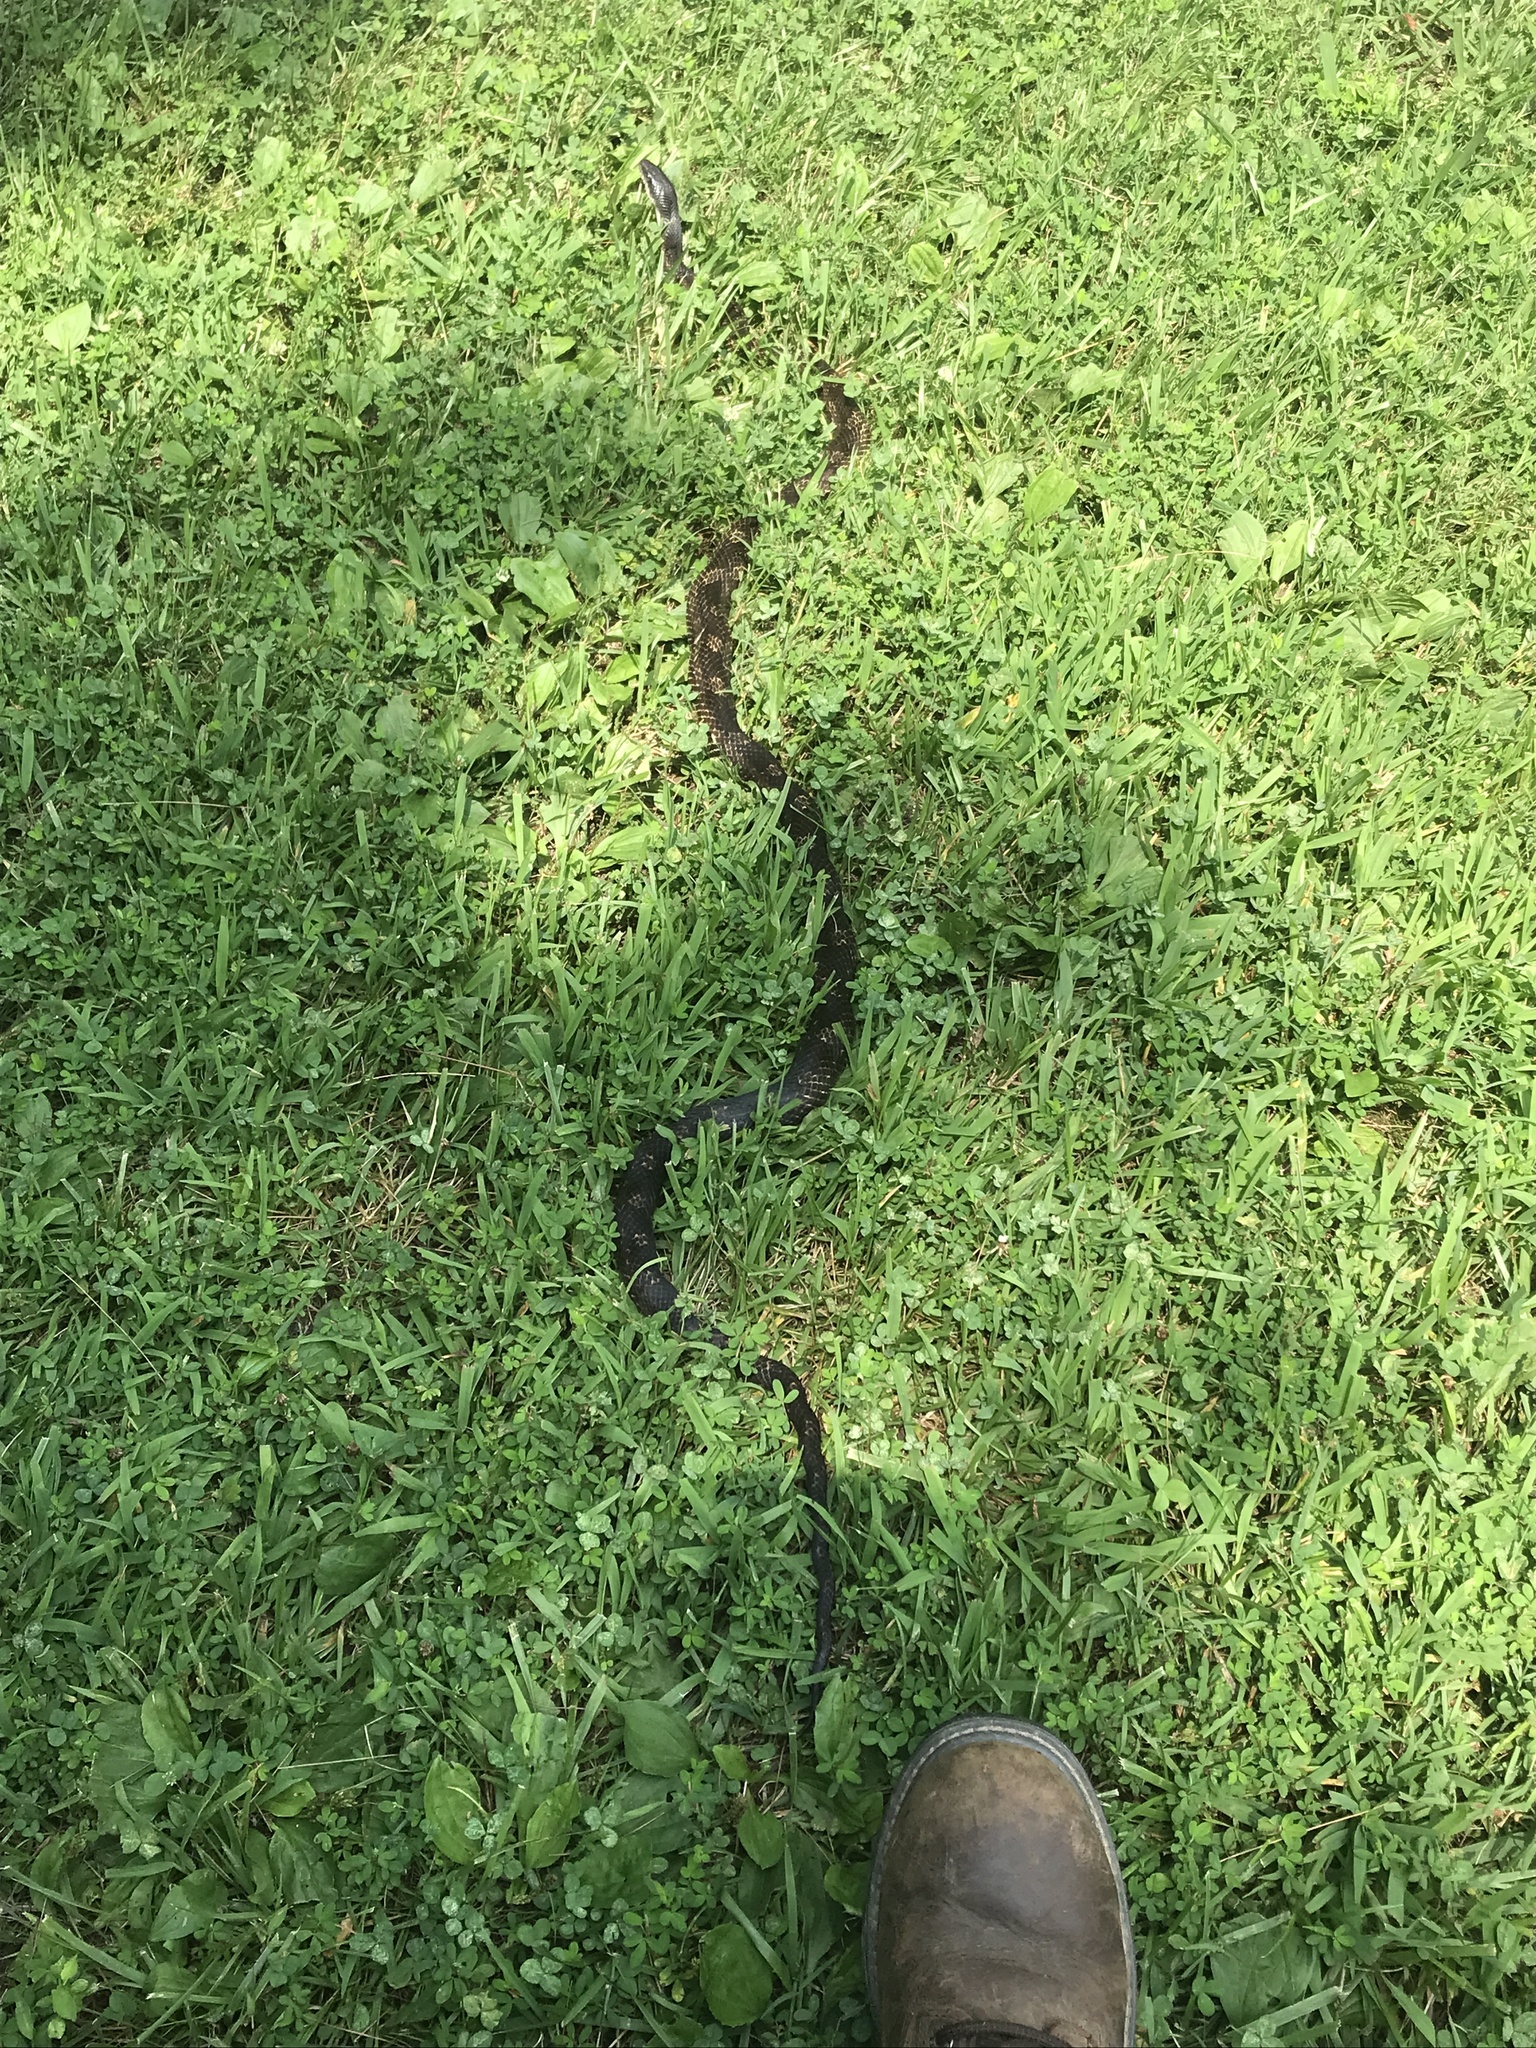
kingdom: Animalia
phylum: Chordata
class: Squamata
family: Colubridae
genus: Pantherophis
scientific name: Pantherophis spiloides
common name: Gray rat snake
